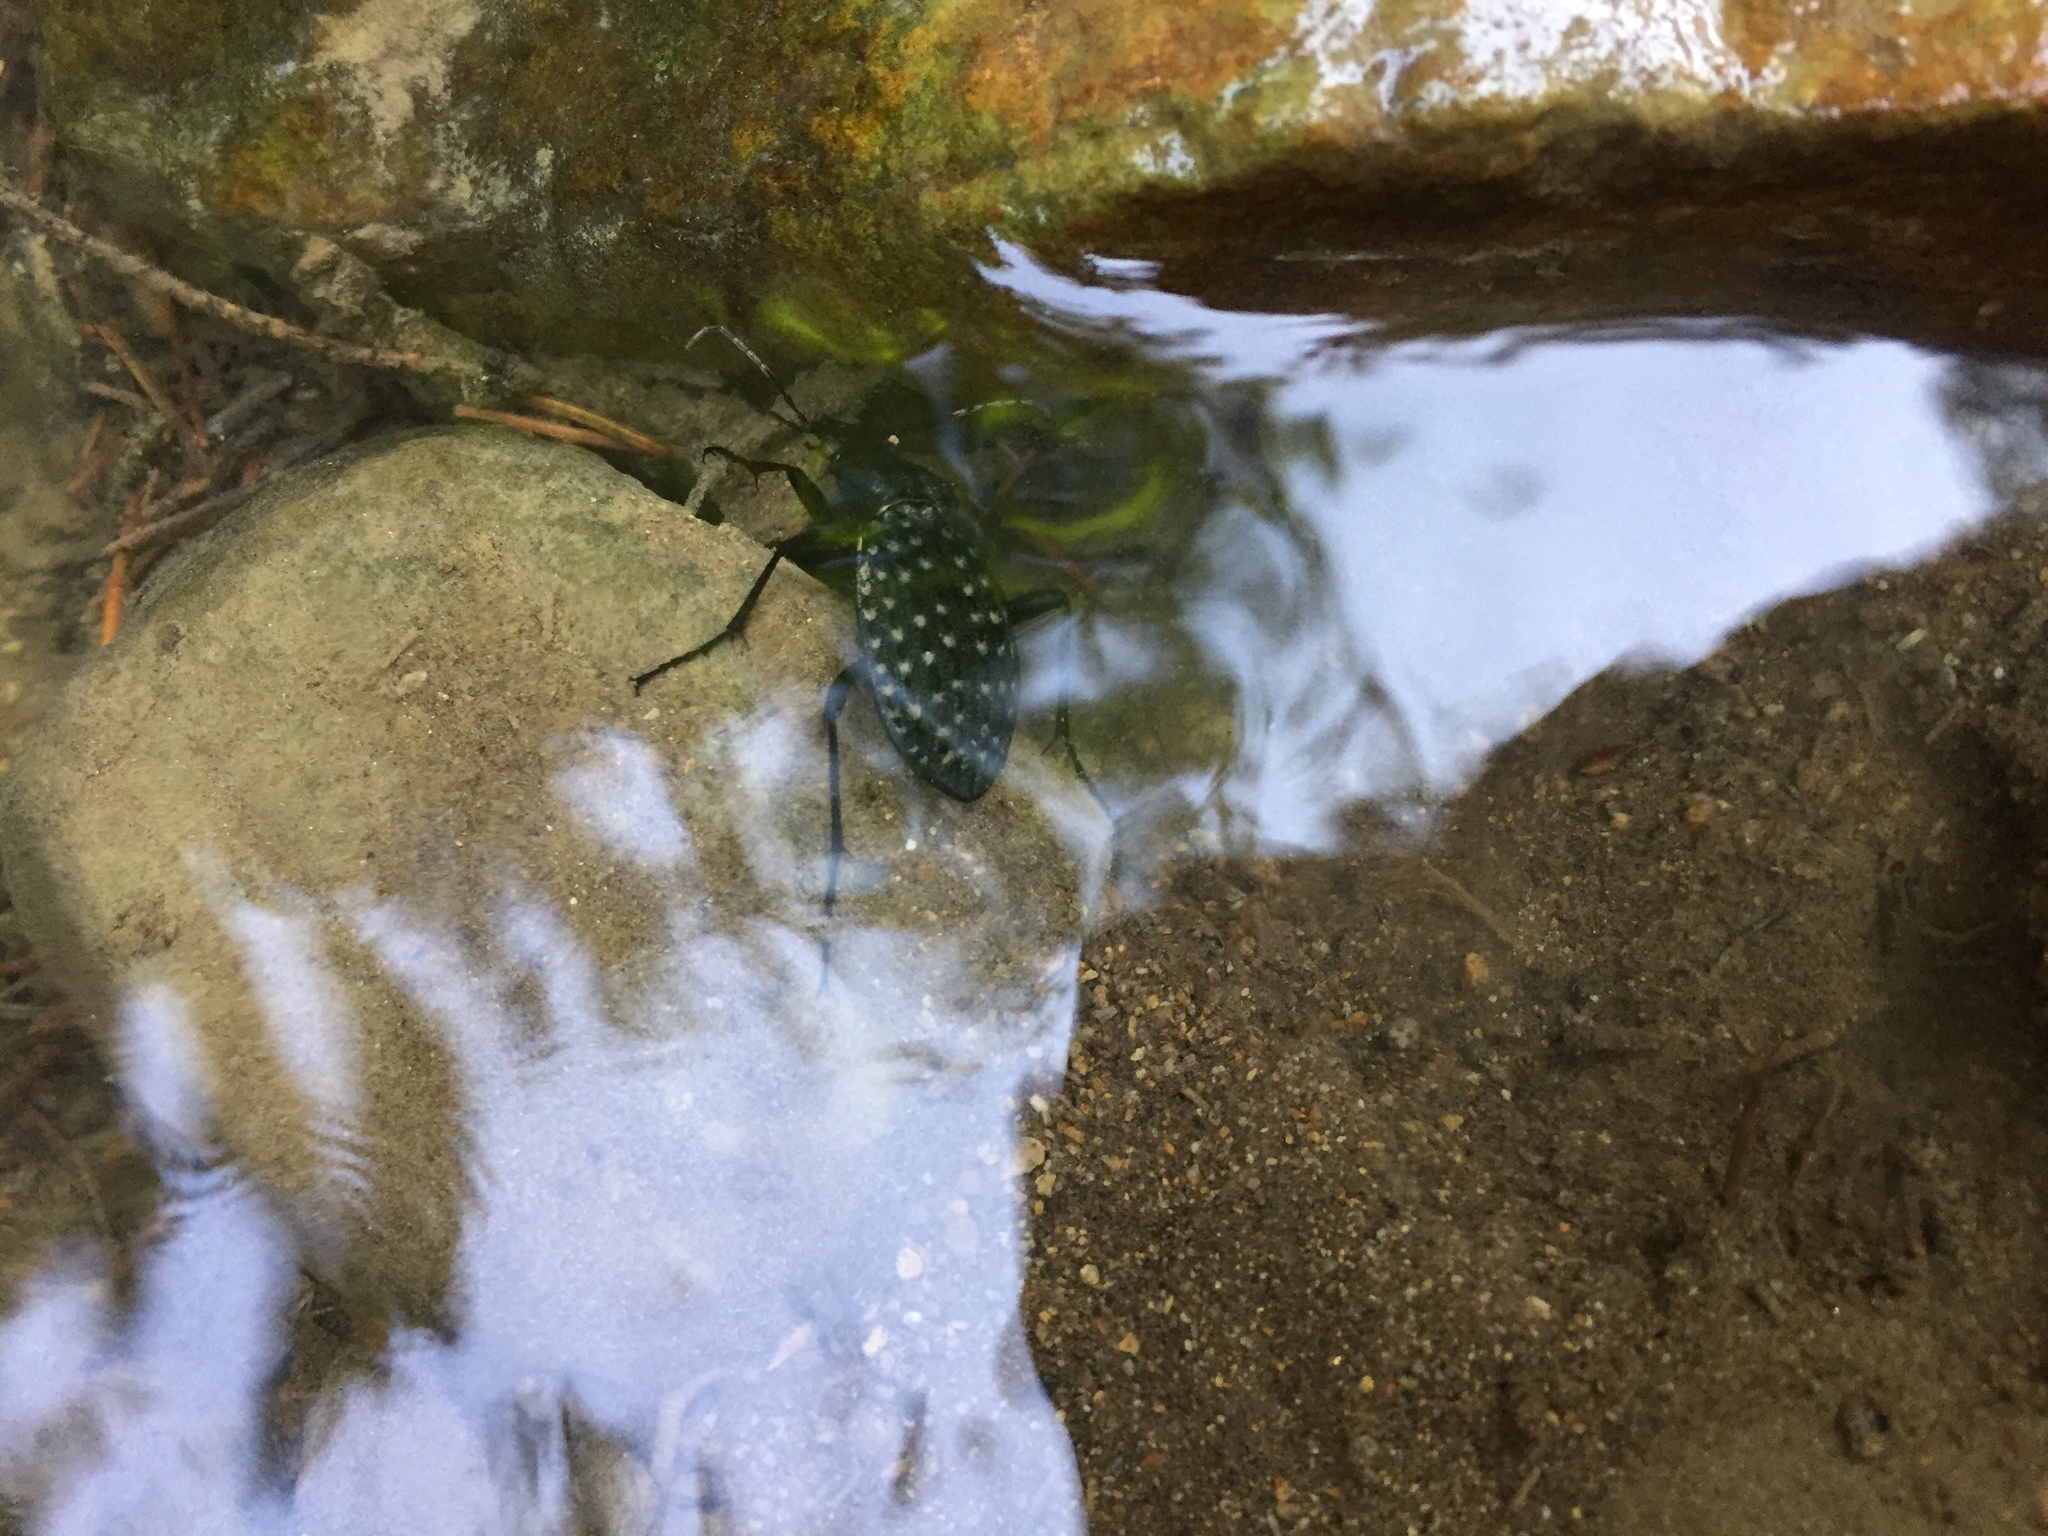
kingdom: Animalia
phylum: Arthropoda
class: Insecta
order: Coleoptera
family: Carabidae
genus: Carabus
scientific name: Carabus variolosus
